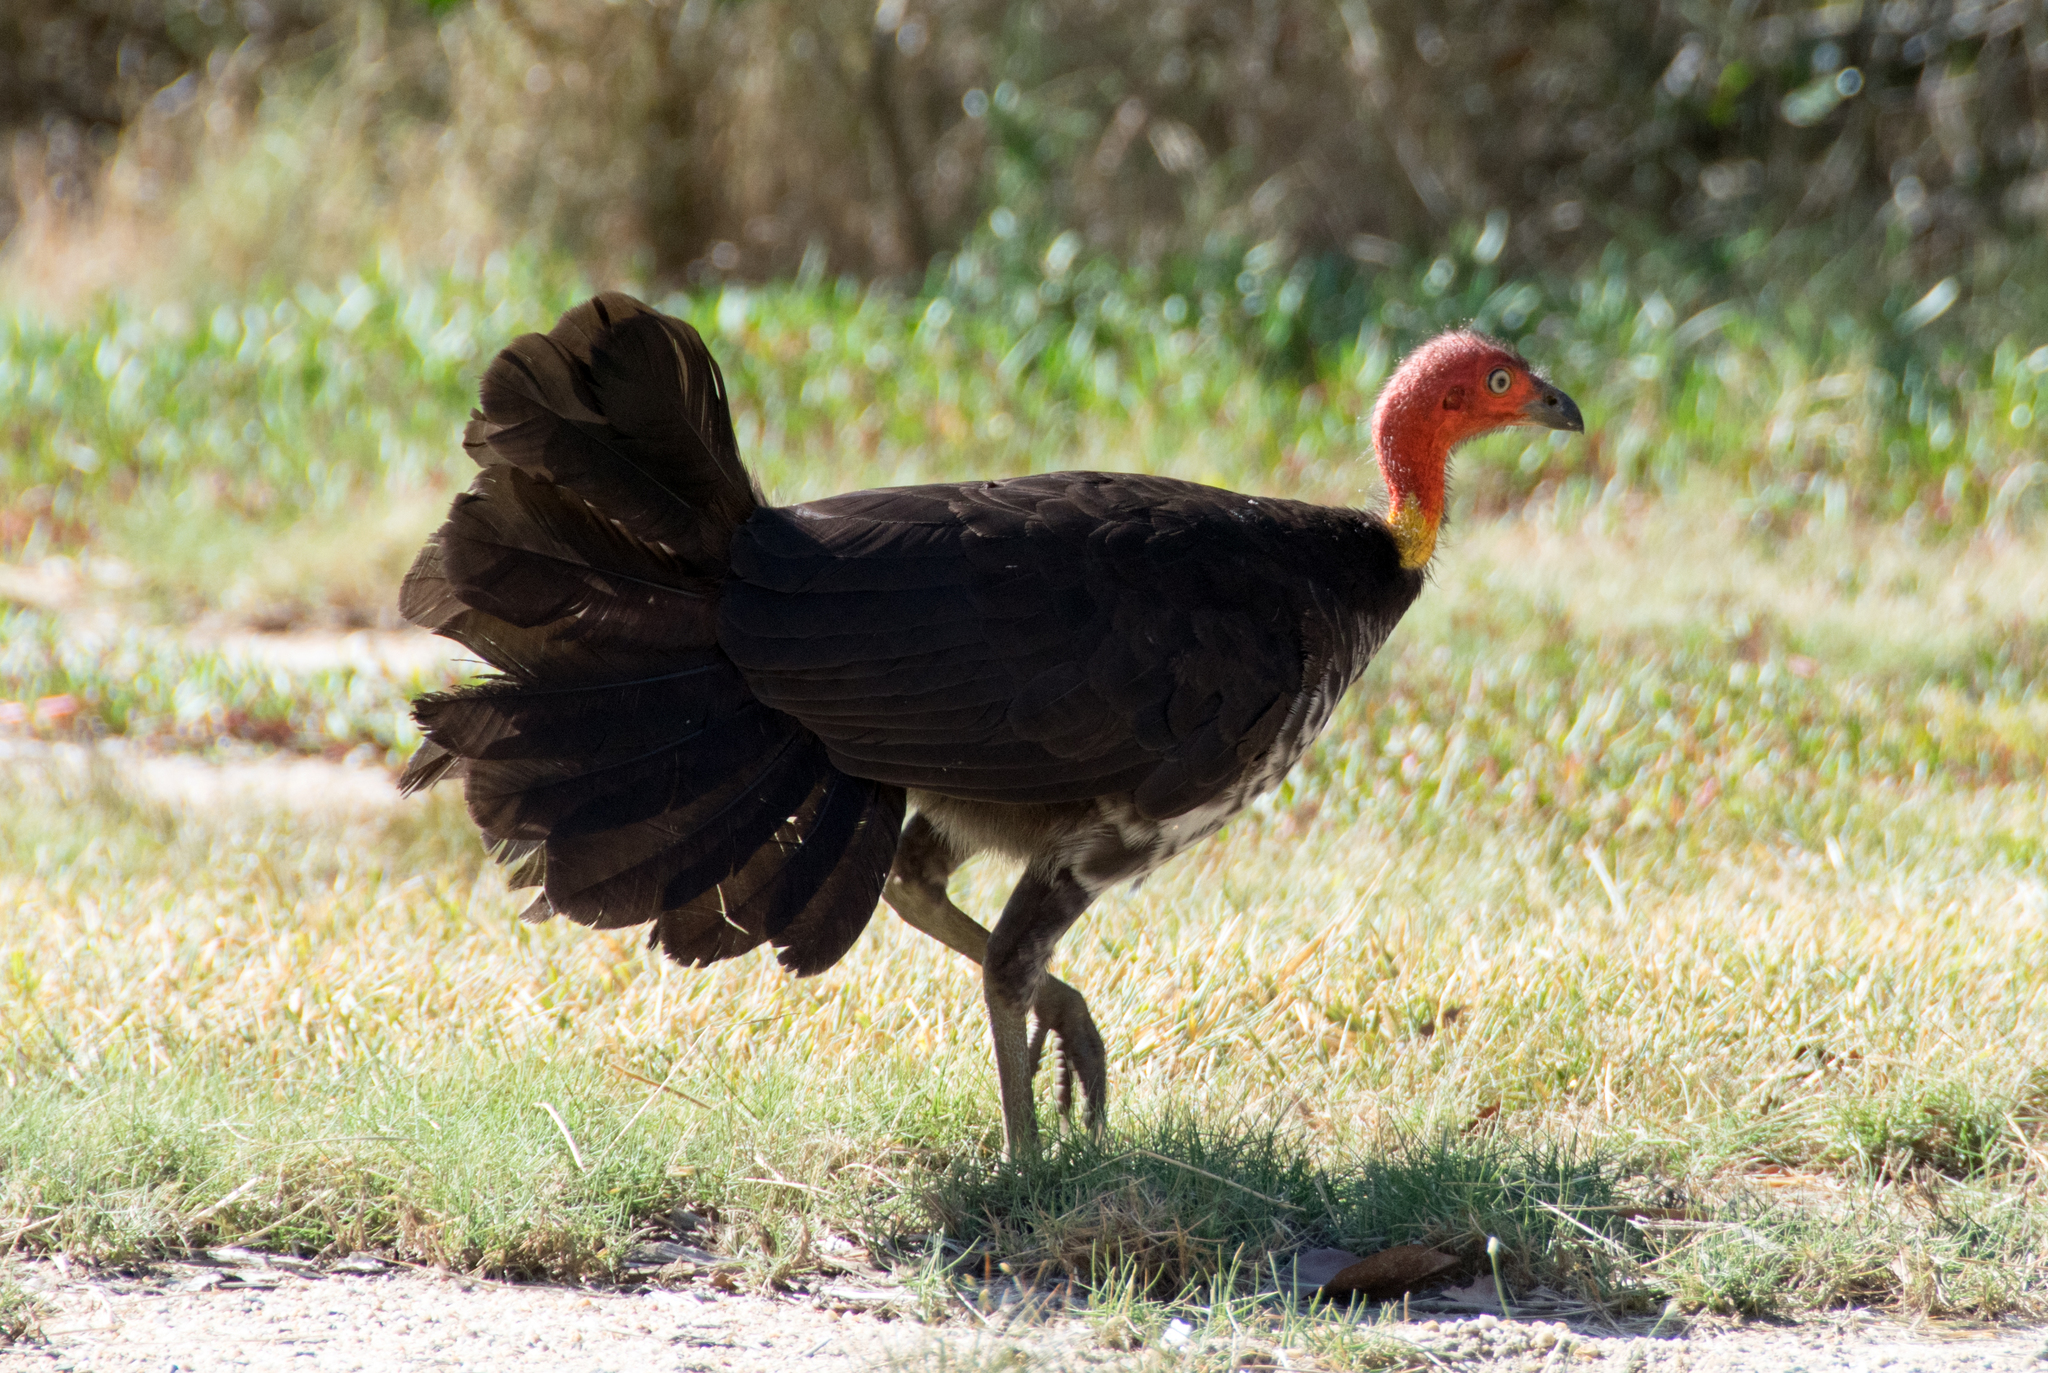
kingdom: Animalia
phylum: Chordata
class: Aves
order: Galliformes
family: Megapodiidae
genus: Alectura
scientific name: Alectura lathami
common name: Australian brushturkey
